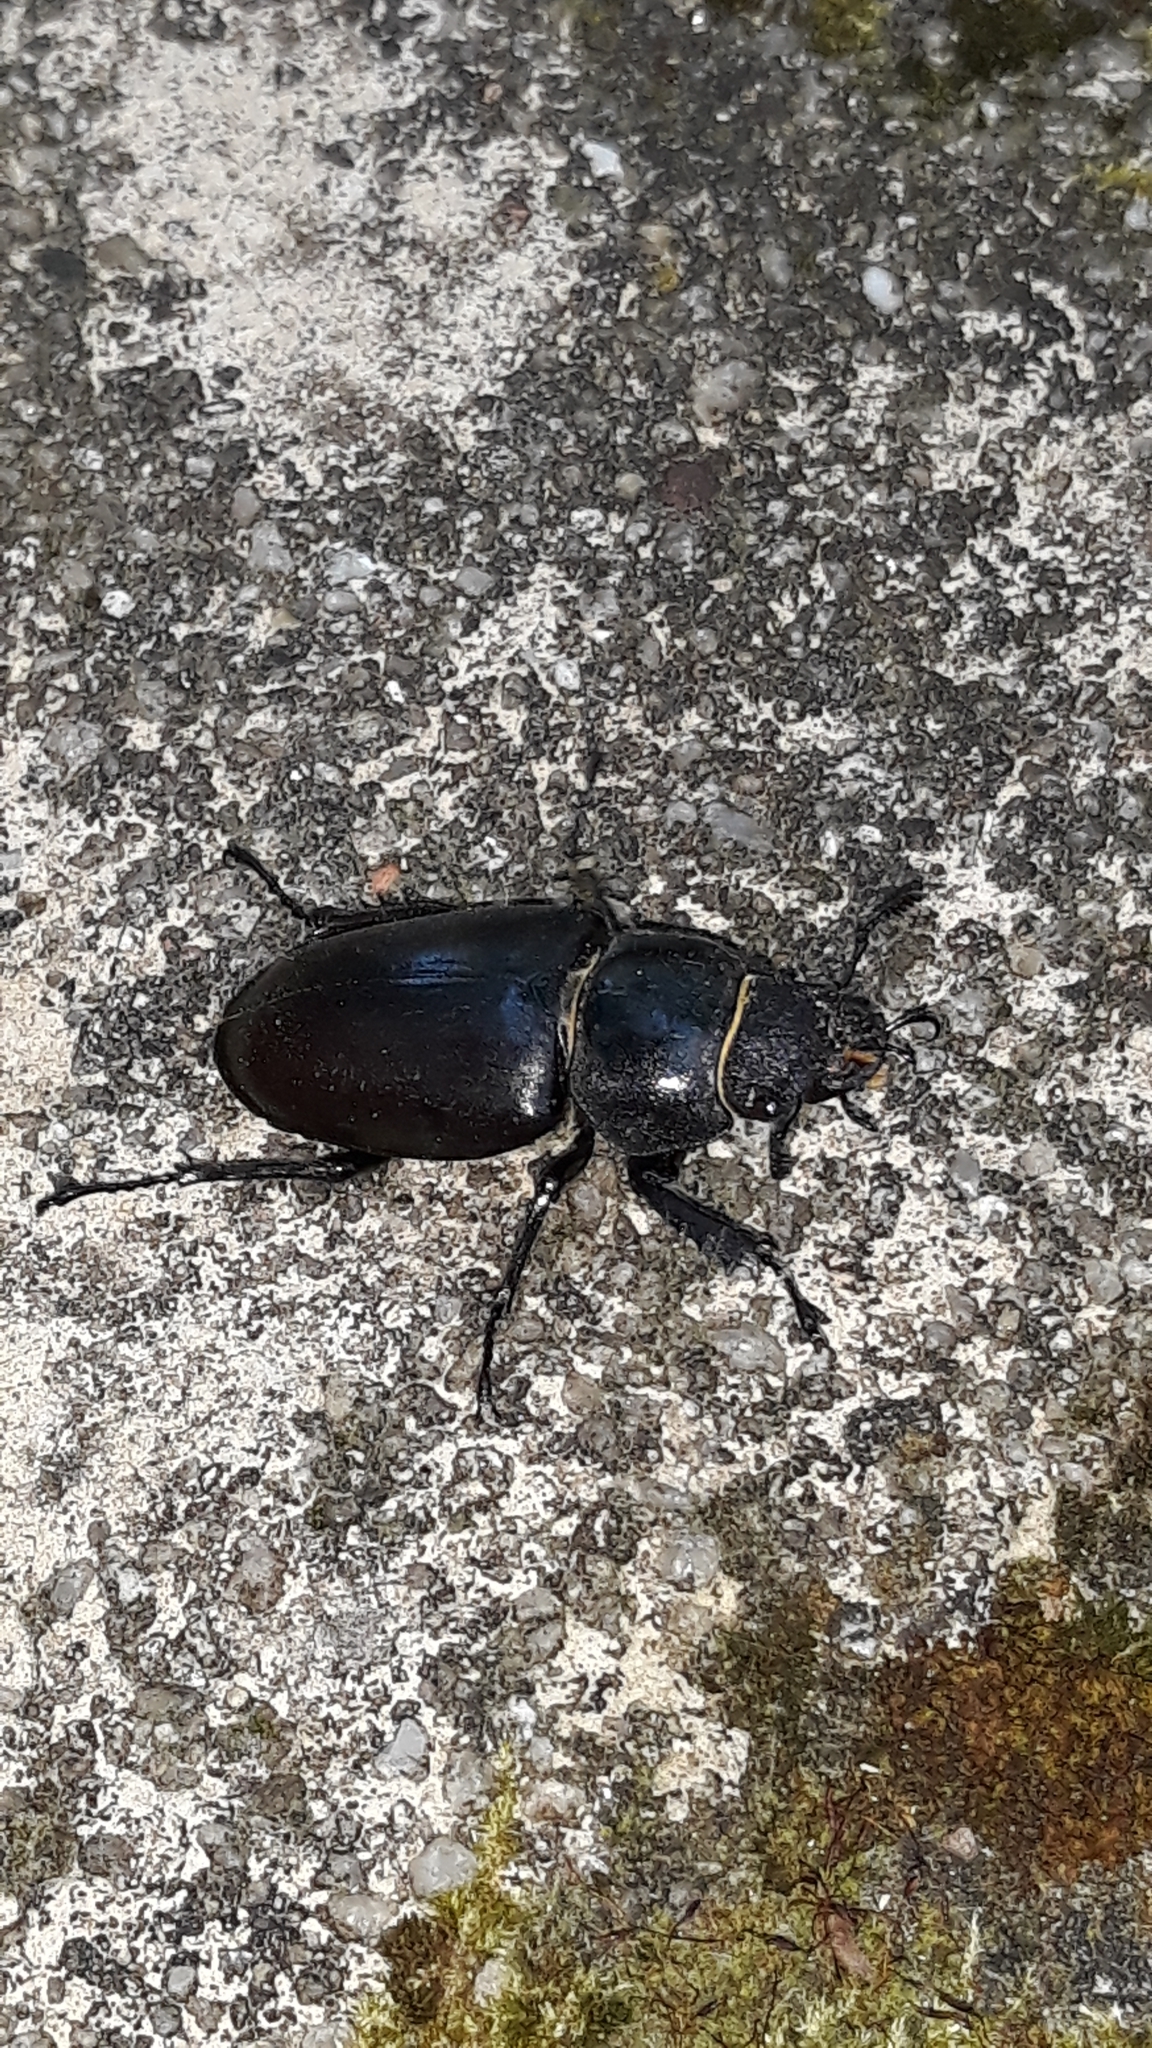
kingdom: Animalia
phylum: Arthropoda
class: Insecta
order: Coleoptera
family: Lucanidae
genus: Lucanus
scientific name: Lucanus cervus
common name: Stag beetle
